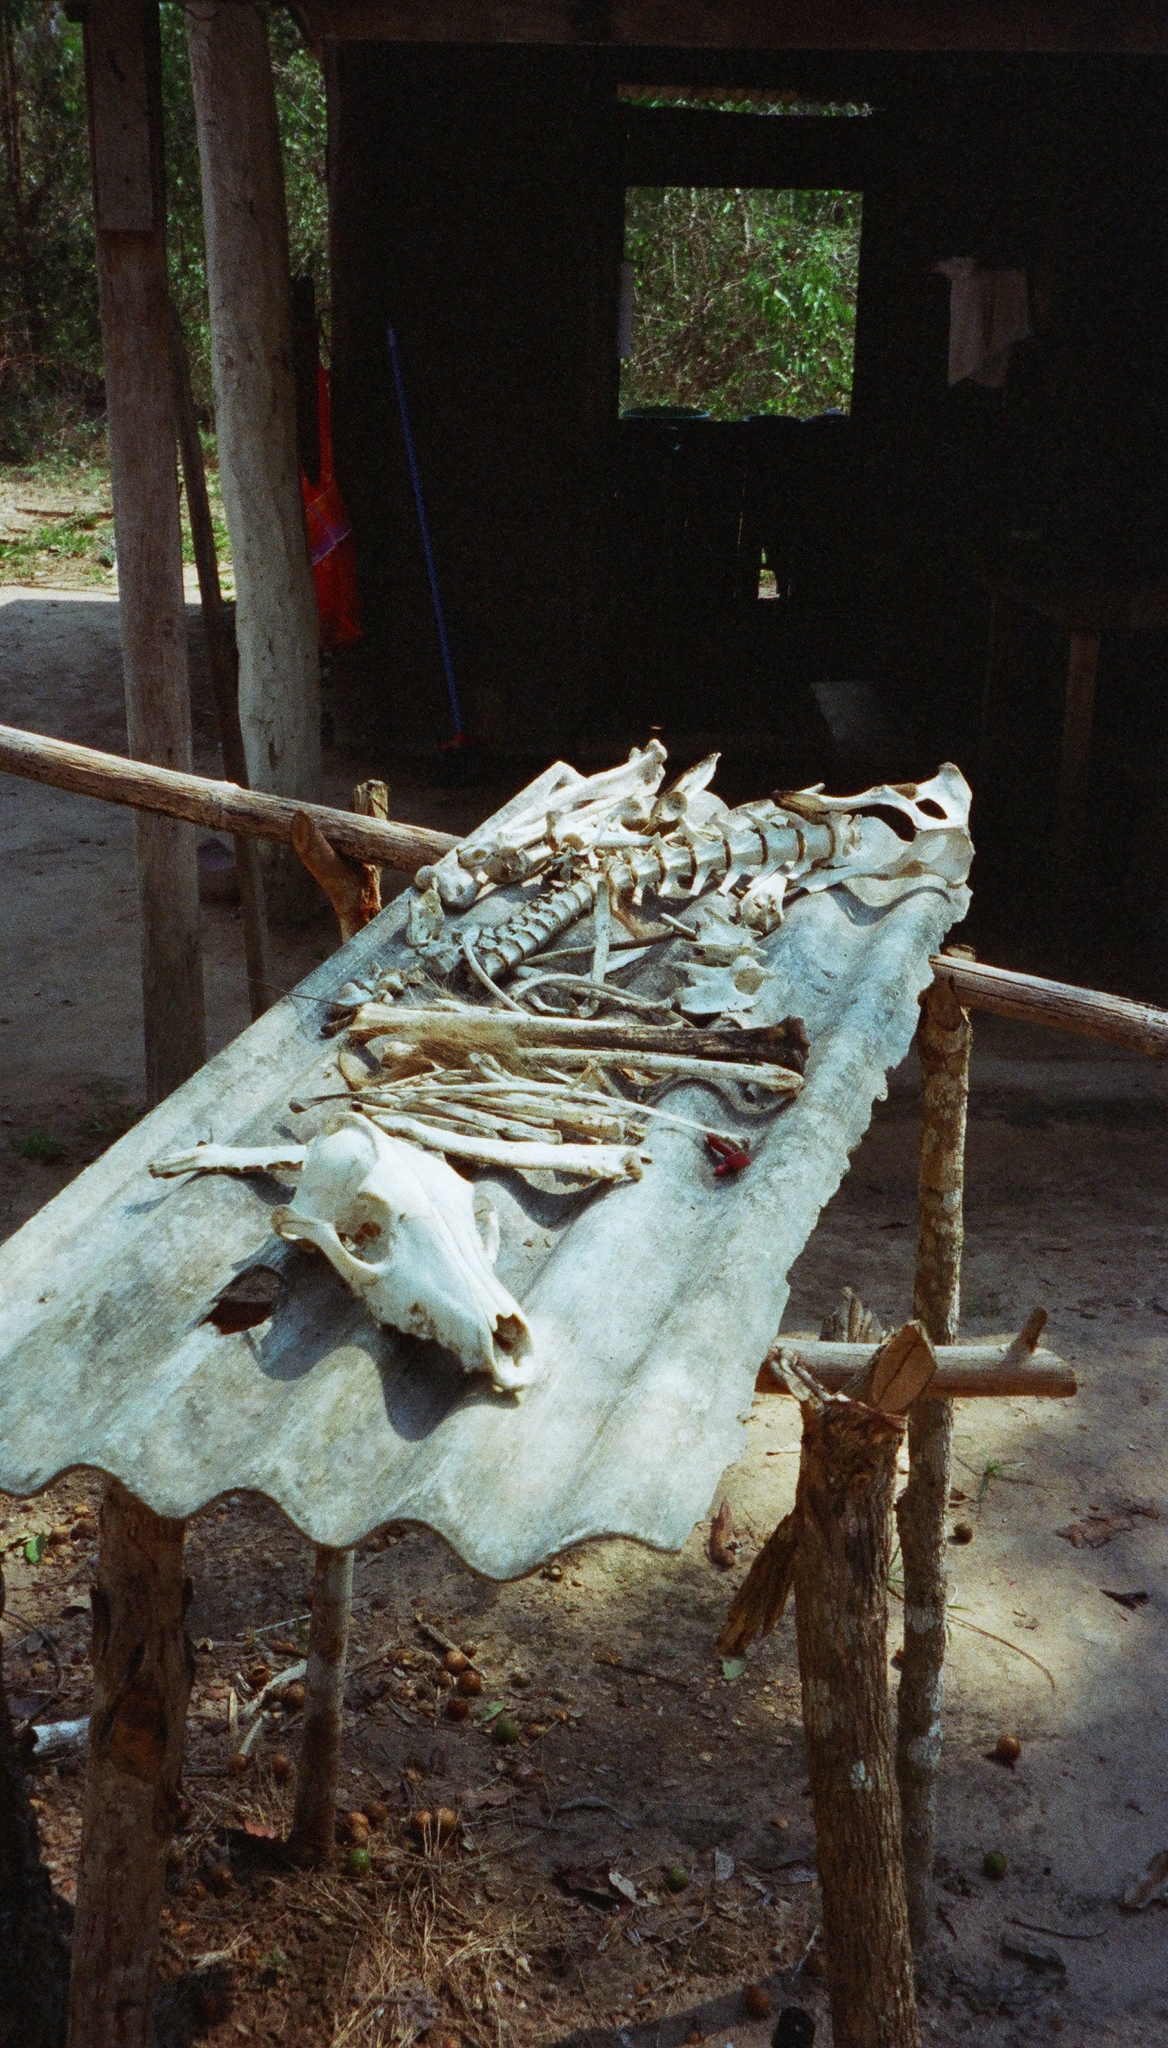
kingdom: Animalia
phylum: Chordata
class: Mammalia
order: Carnivora
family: Canidae
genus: Chrysocyon
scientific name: Chrysocyon brachyurus
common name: Maned wolf
